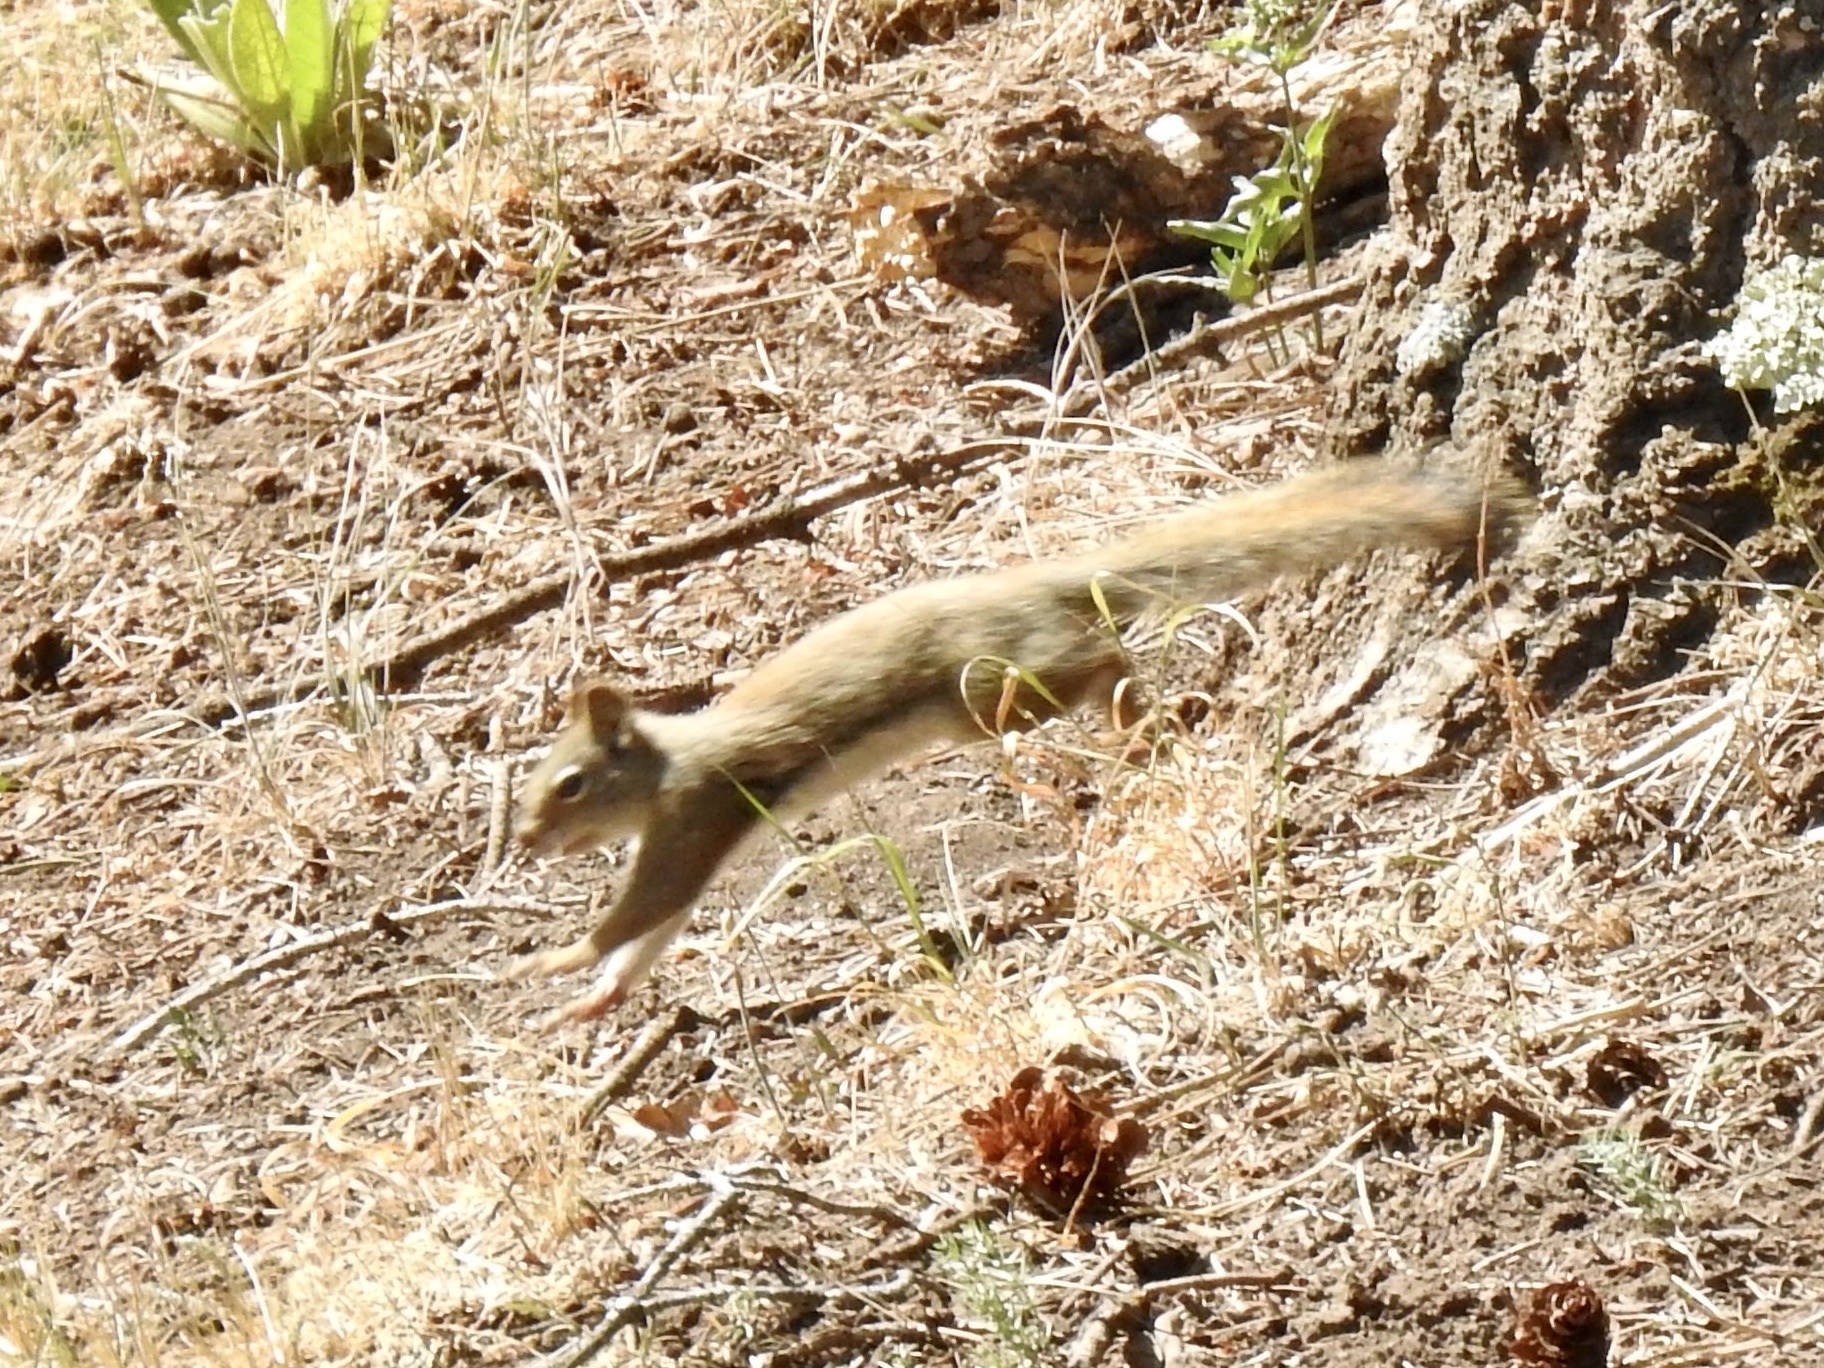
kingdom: Animalia
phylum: Chordata
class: Mammalia
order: Rodentia
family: Sciuridae
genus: Tamiasciurus
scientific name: Tamiasciurus hudsonicus
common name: Red squirrel
